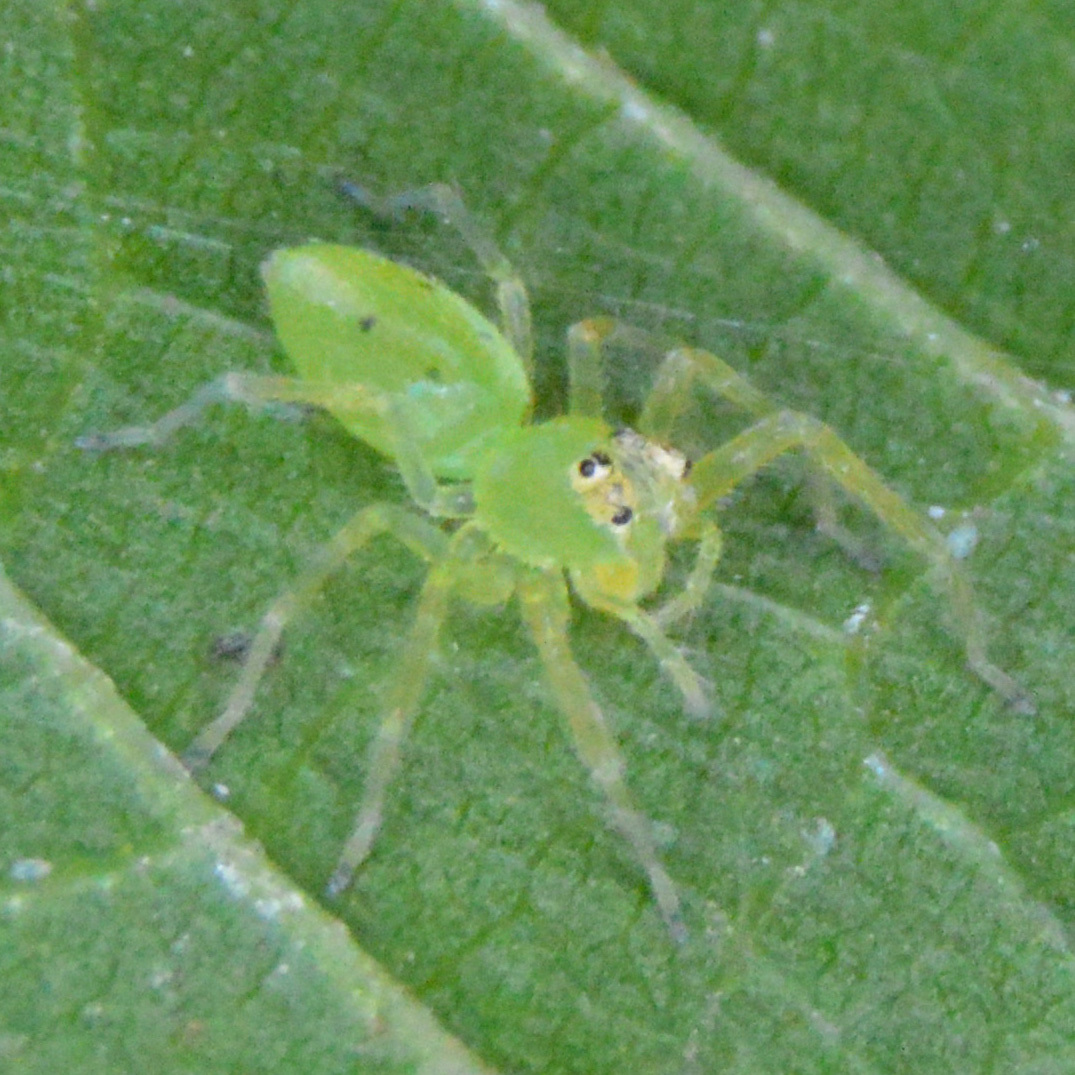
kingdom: Animalia
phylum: Arthropoda
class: Arachnida
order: Araneae
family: Salticidae
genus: Lyssomanes
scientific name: Lyssomanes viridis
